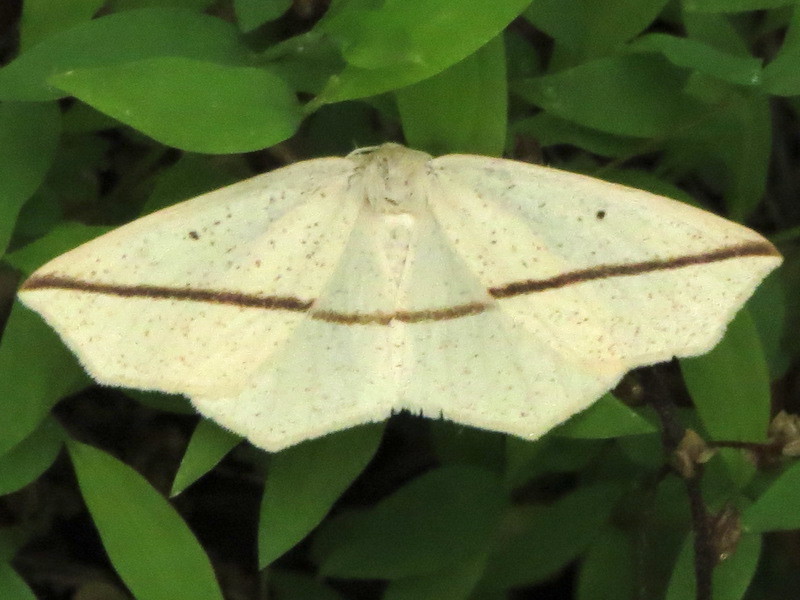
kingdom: Animalia
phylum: Arthropoda
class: Insecta
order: Lepidoptera
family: Geometridae
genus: Tetracis
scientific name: Tetracis crocallata
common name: Yellow slant-line
